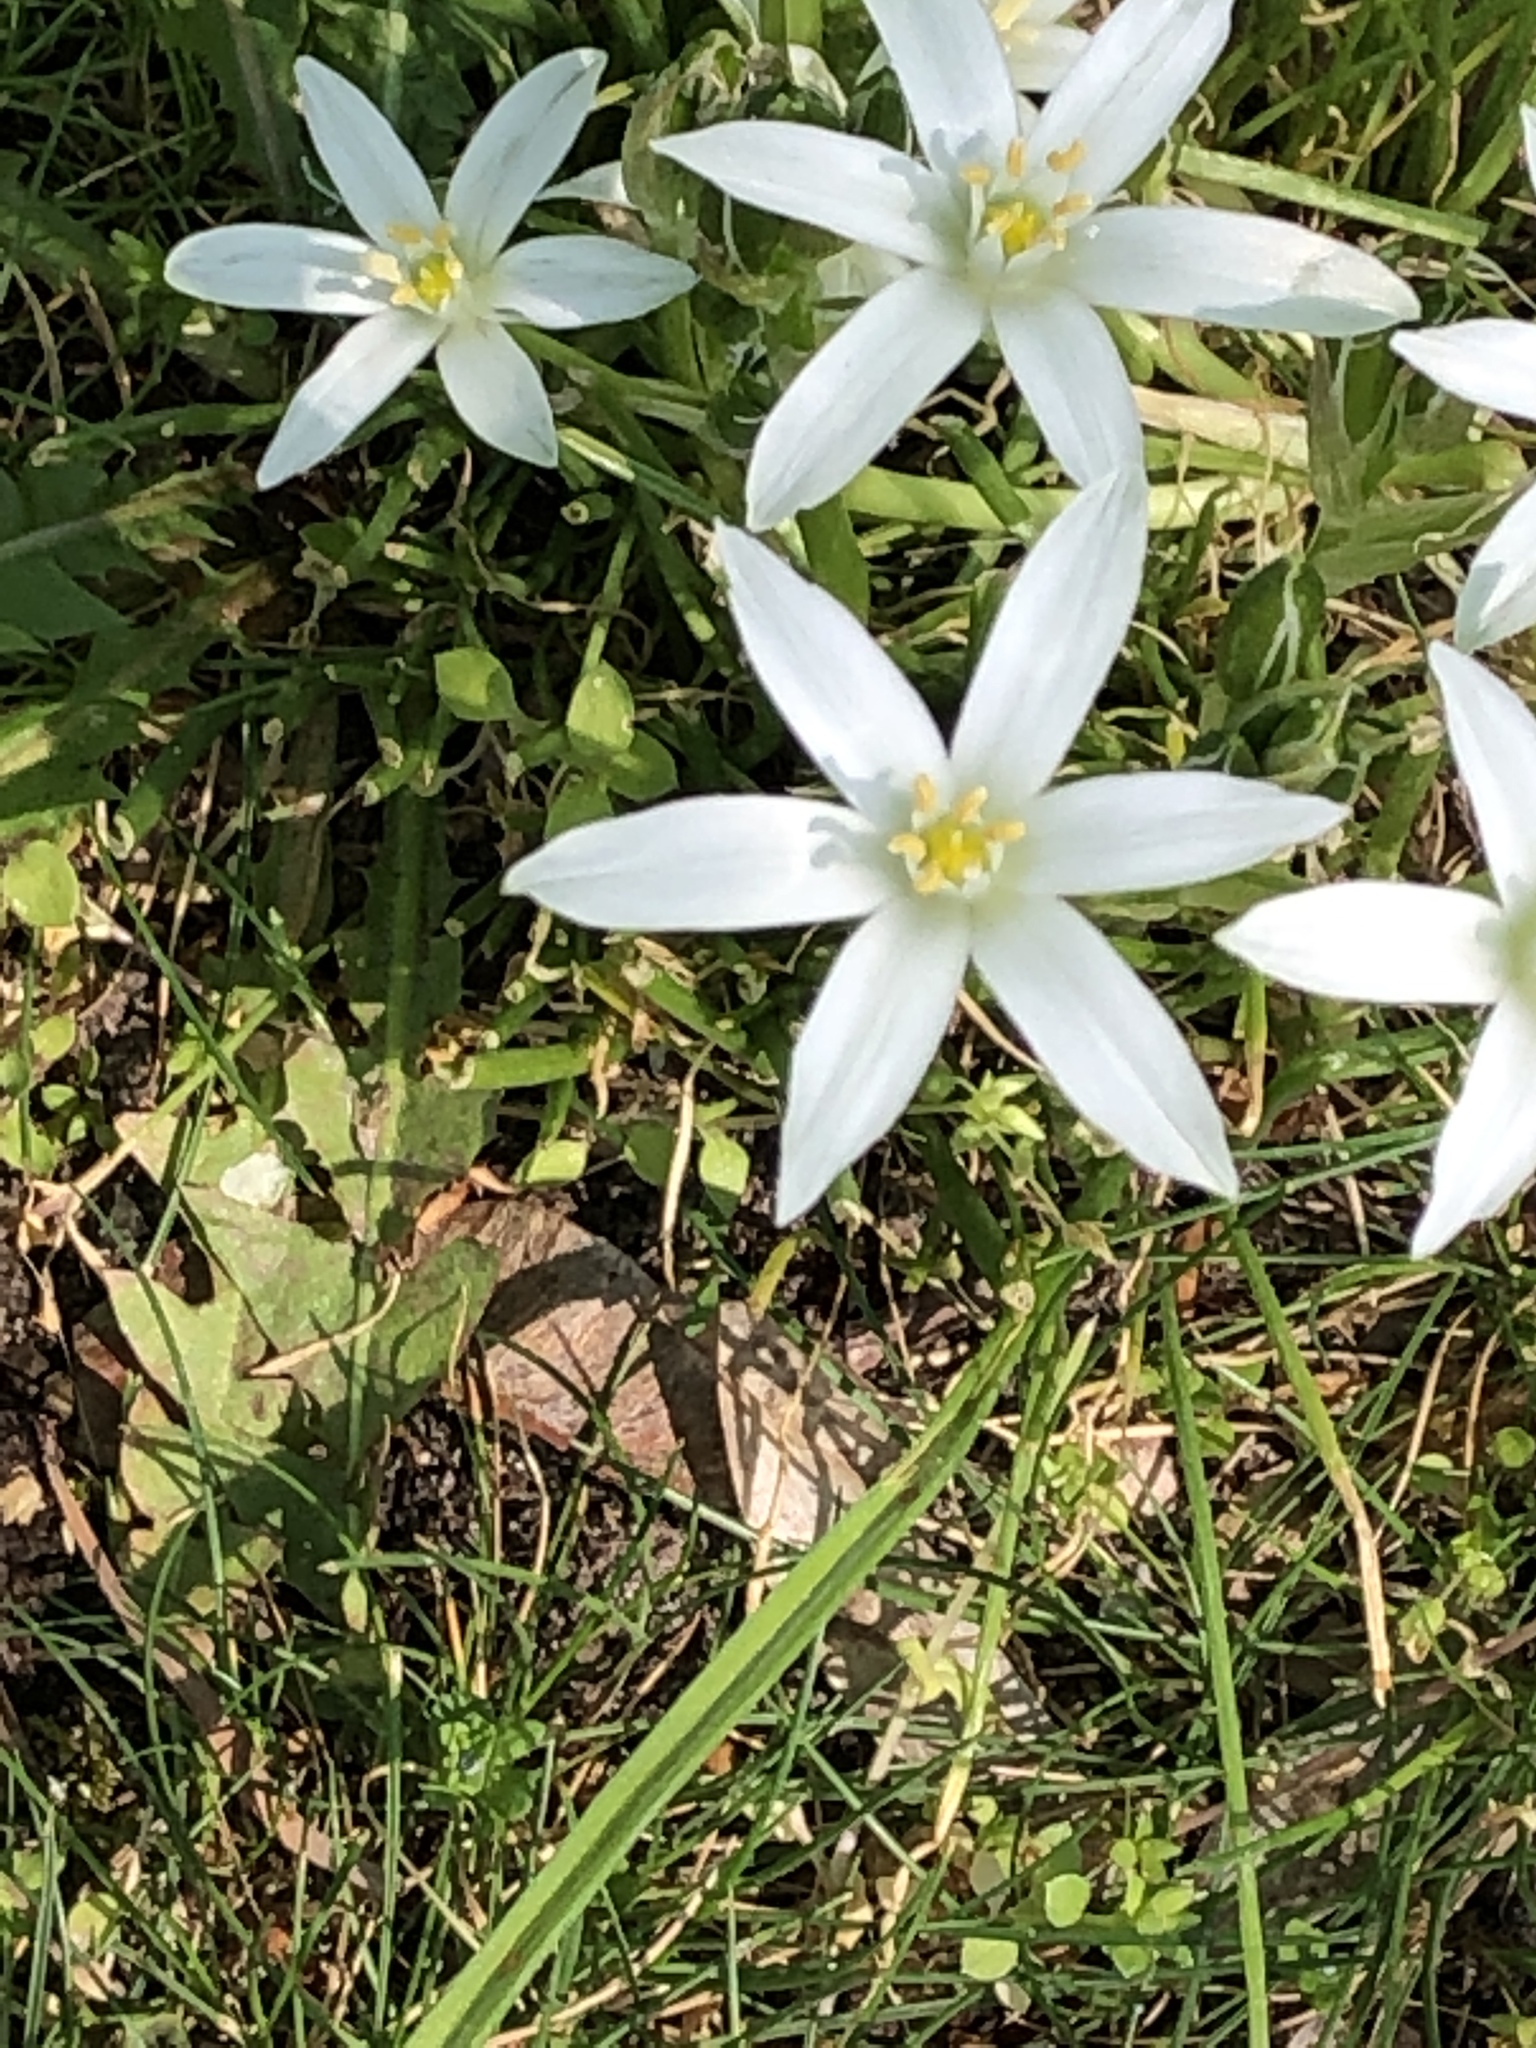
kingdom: Plantae
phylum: Tracheophyta
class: Liliopsida
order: Asparagales
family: Asparagaceae
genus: Ornithogalum
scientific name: Ornithogalum umbellatum
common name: Garden star-of-bethlehem
